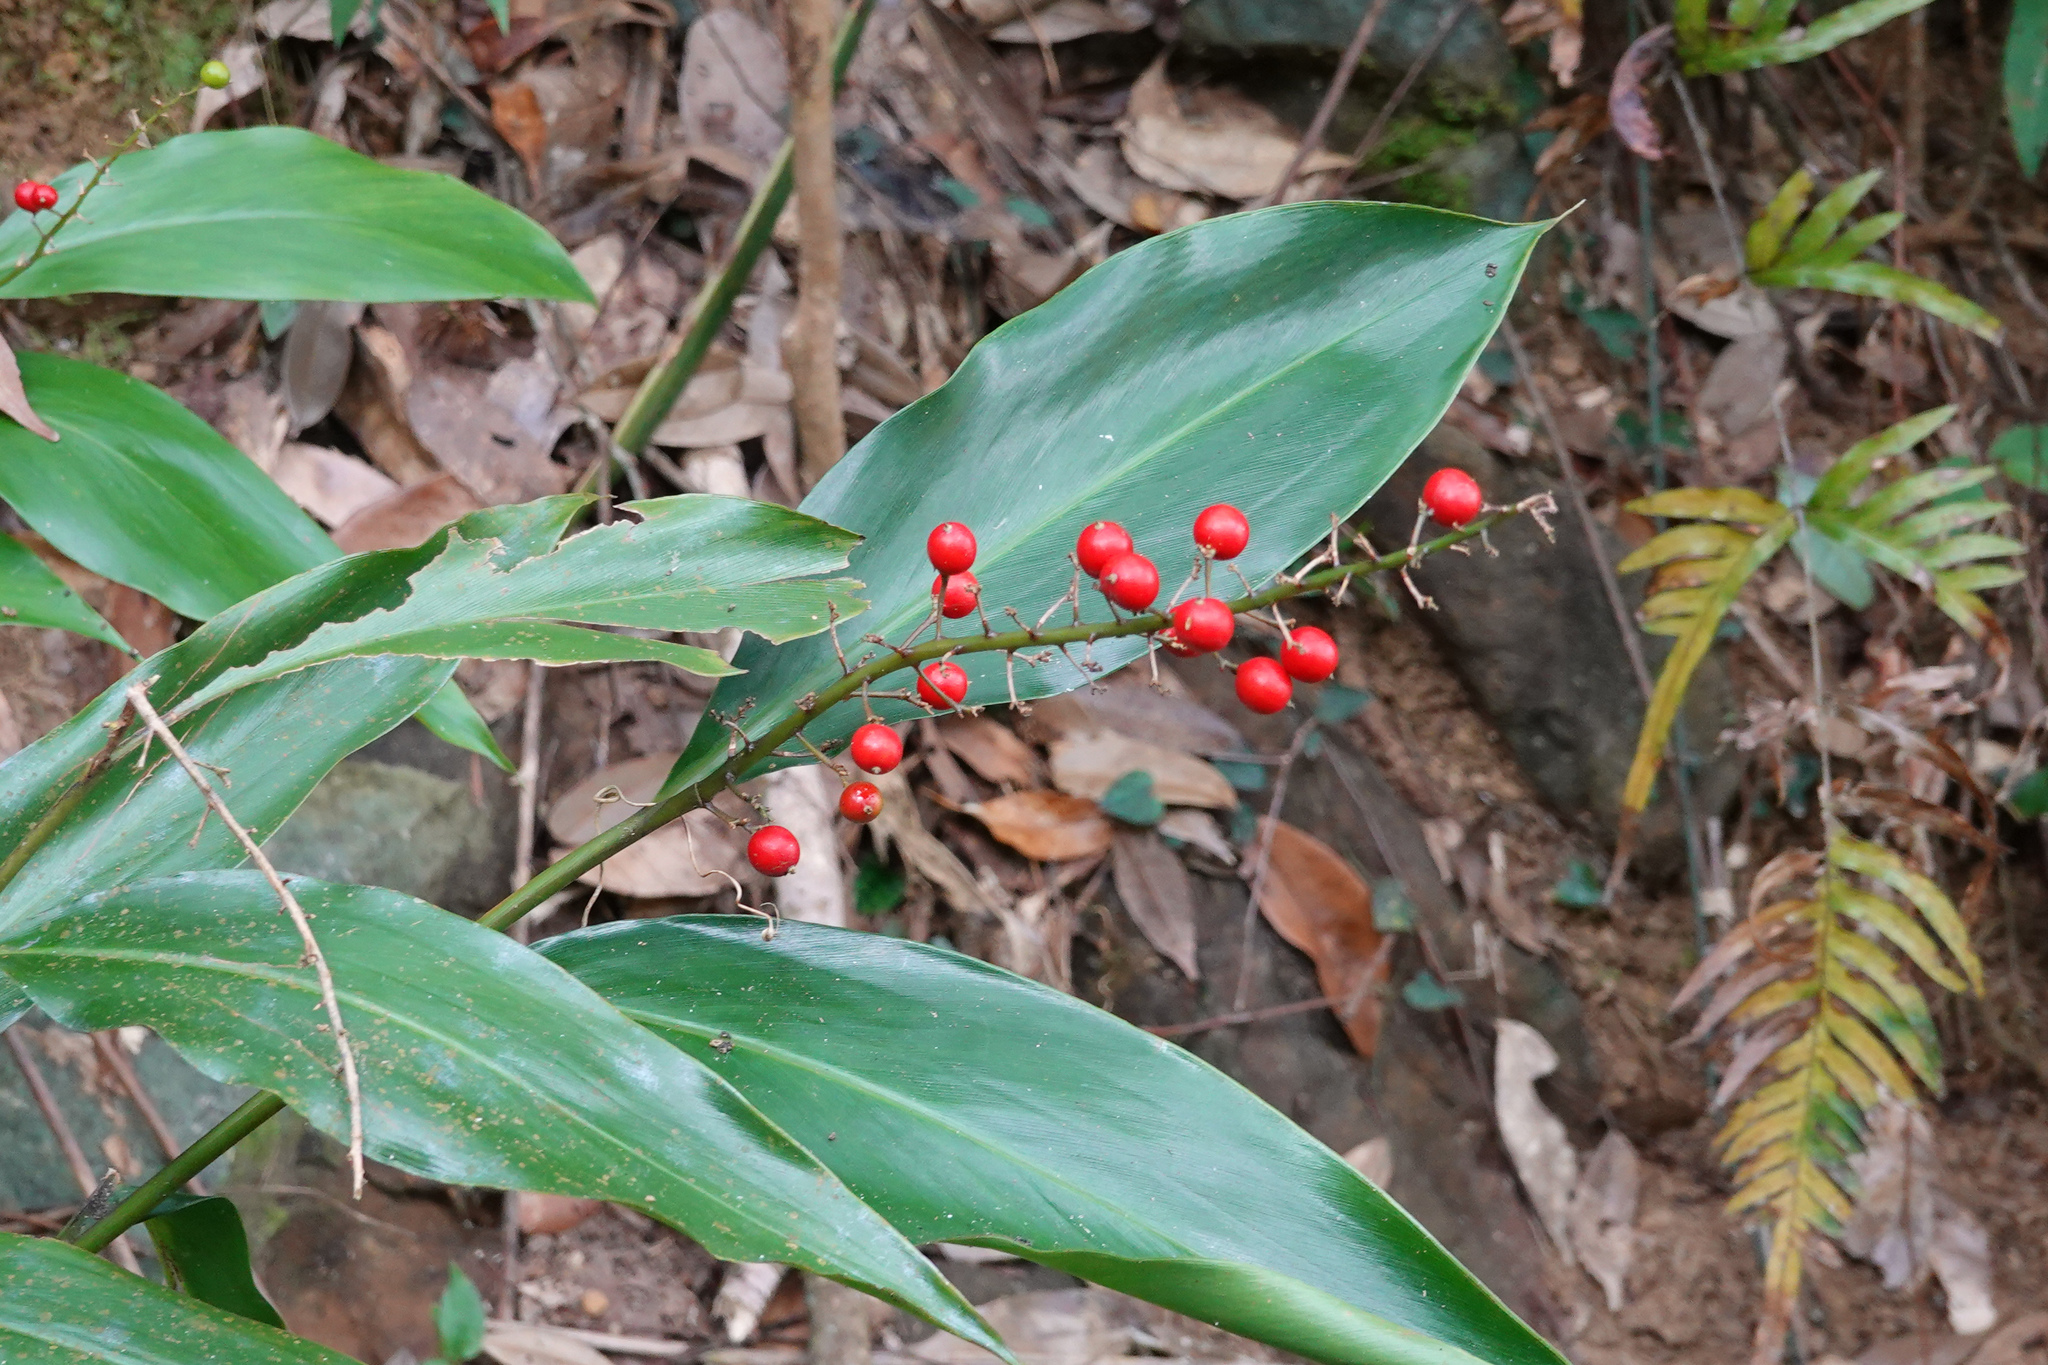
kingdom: Plantae
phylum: Tracheophyta
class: Liliopsida
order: Zingiberales
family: Zingiberaceae
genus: Alpinia
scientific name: Alpinia intermedia
